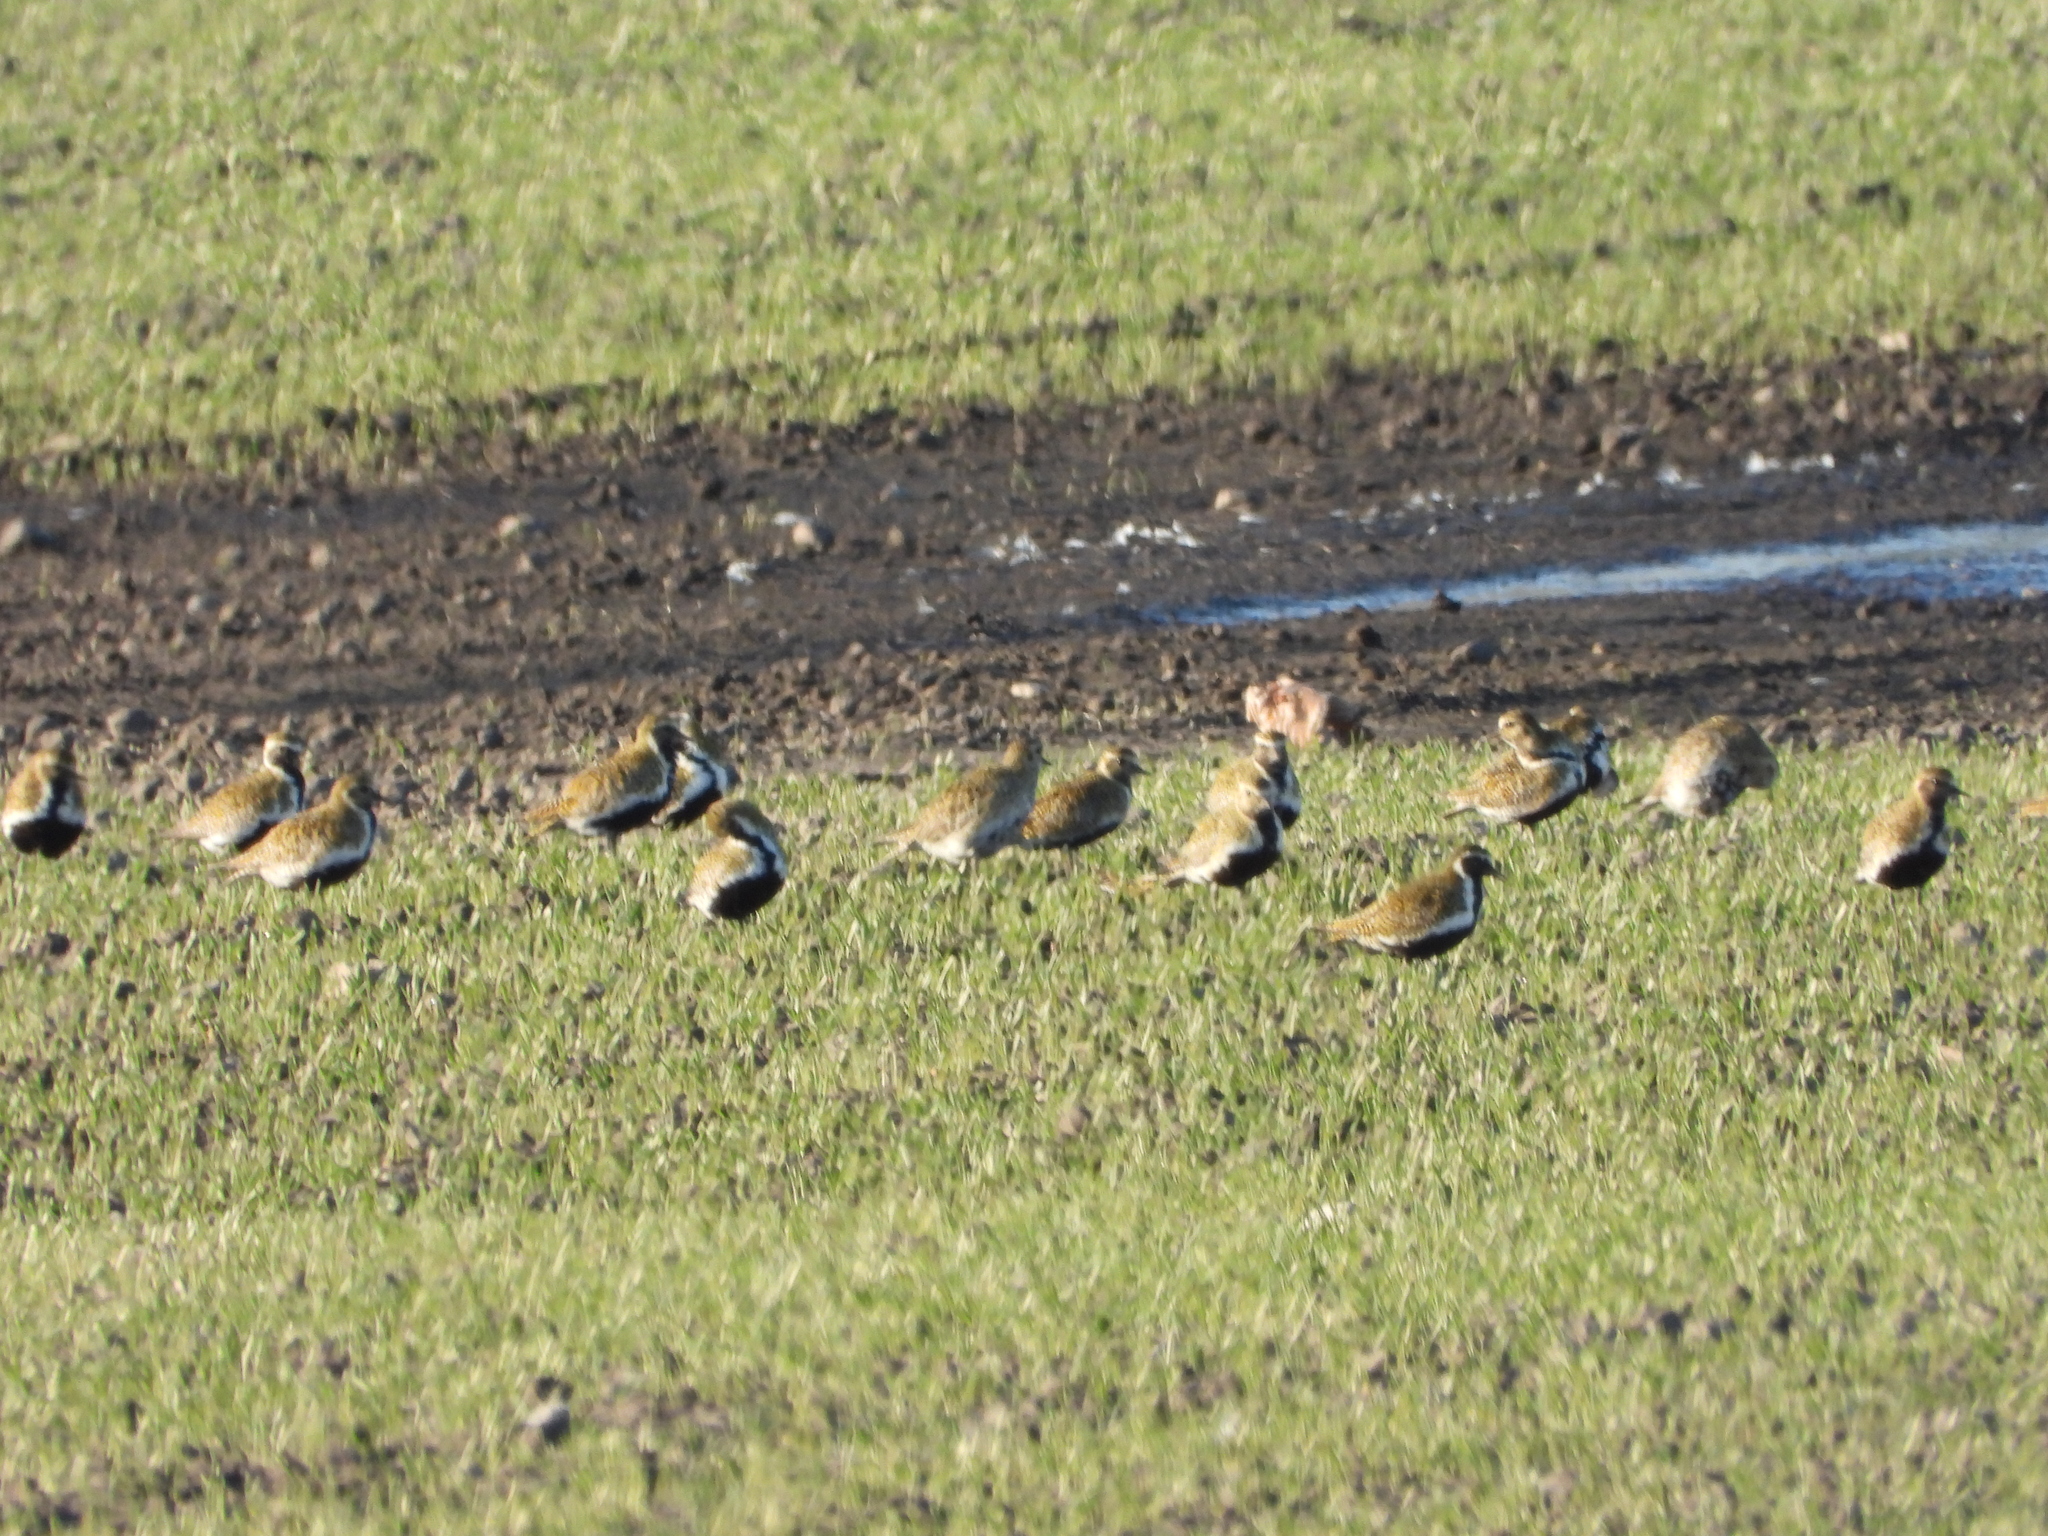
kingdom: Animalia
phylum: Chordata
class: Aves
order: Charadriiformes
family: Charadriidae
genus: Pluvialis
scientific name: Pluvialis apricaria
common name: European golden plover
